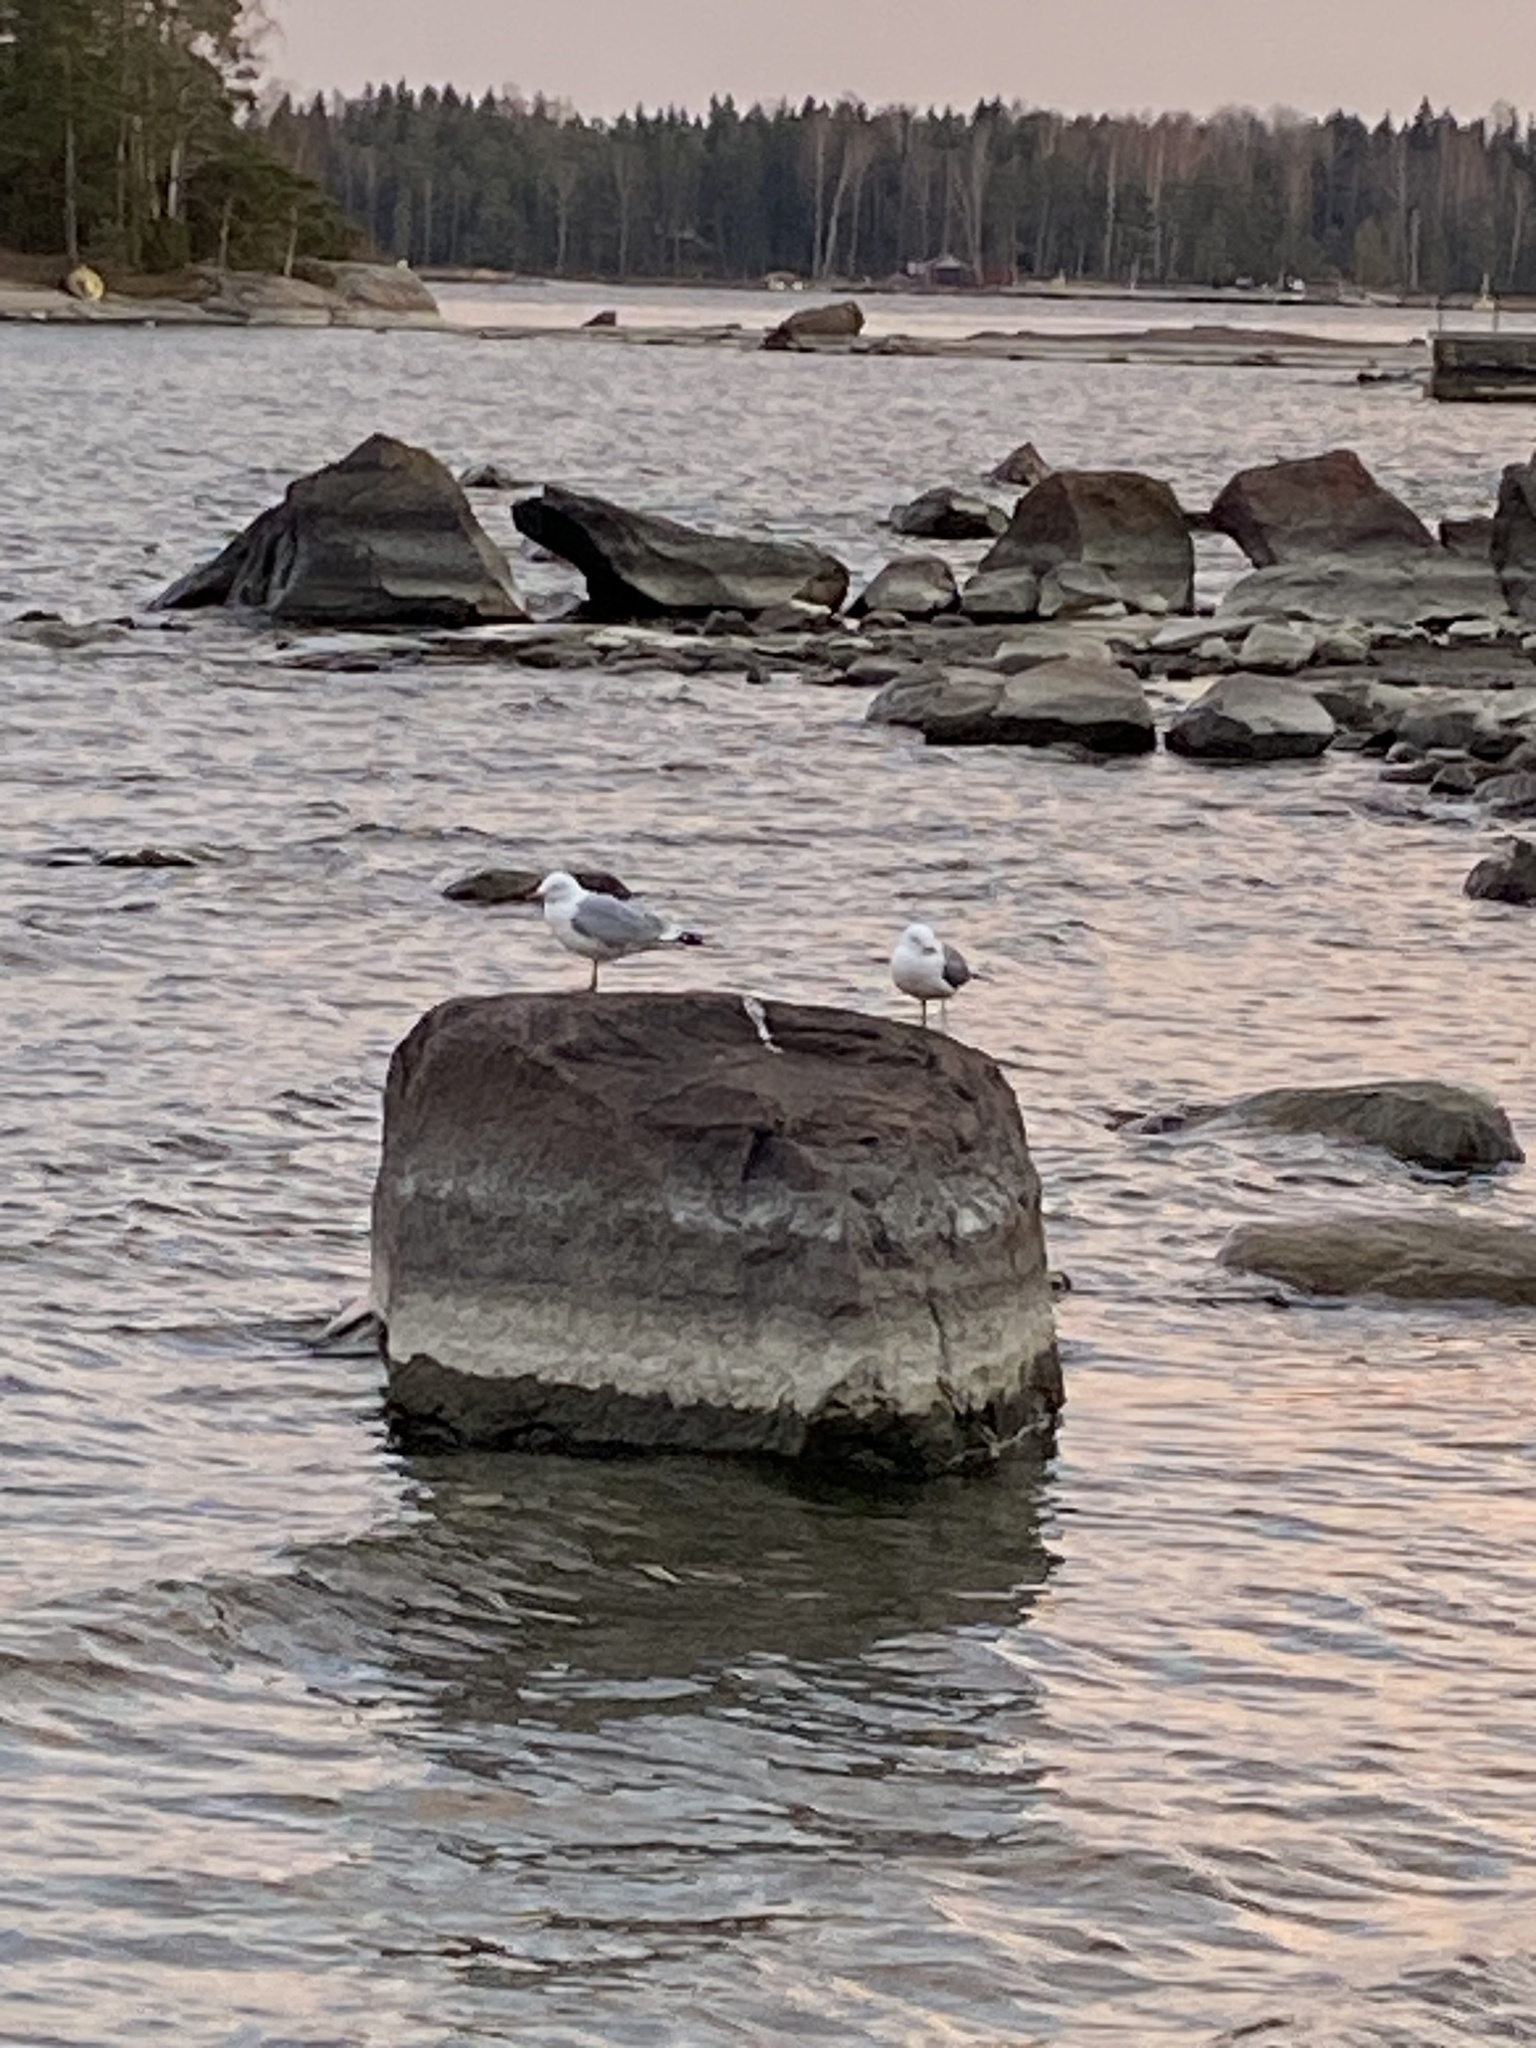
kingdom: Animalia
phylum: Chordata
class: Aves
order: Charadriiformes
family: Laridae
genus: Larus
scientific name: Larus canus
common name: Mew gull
